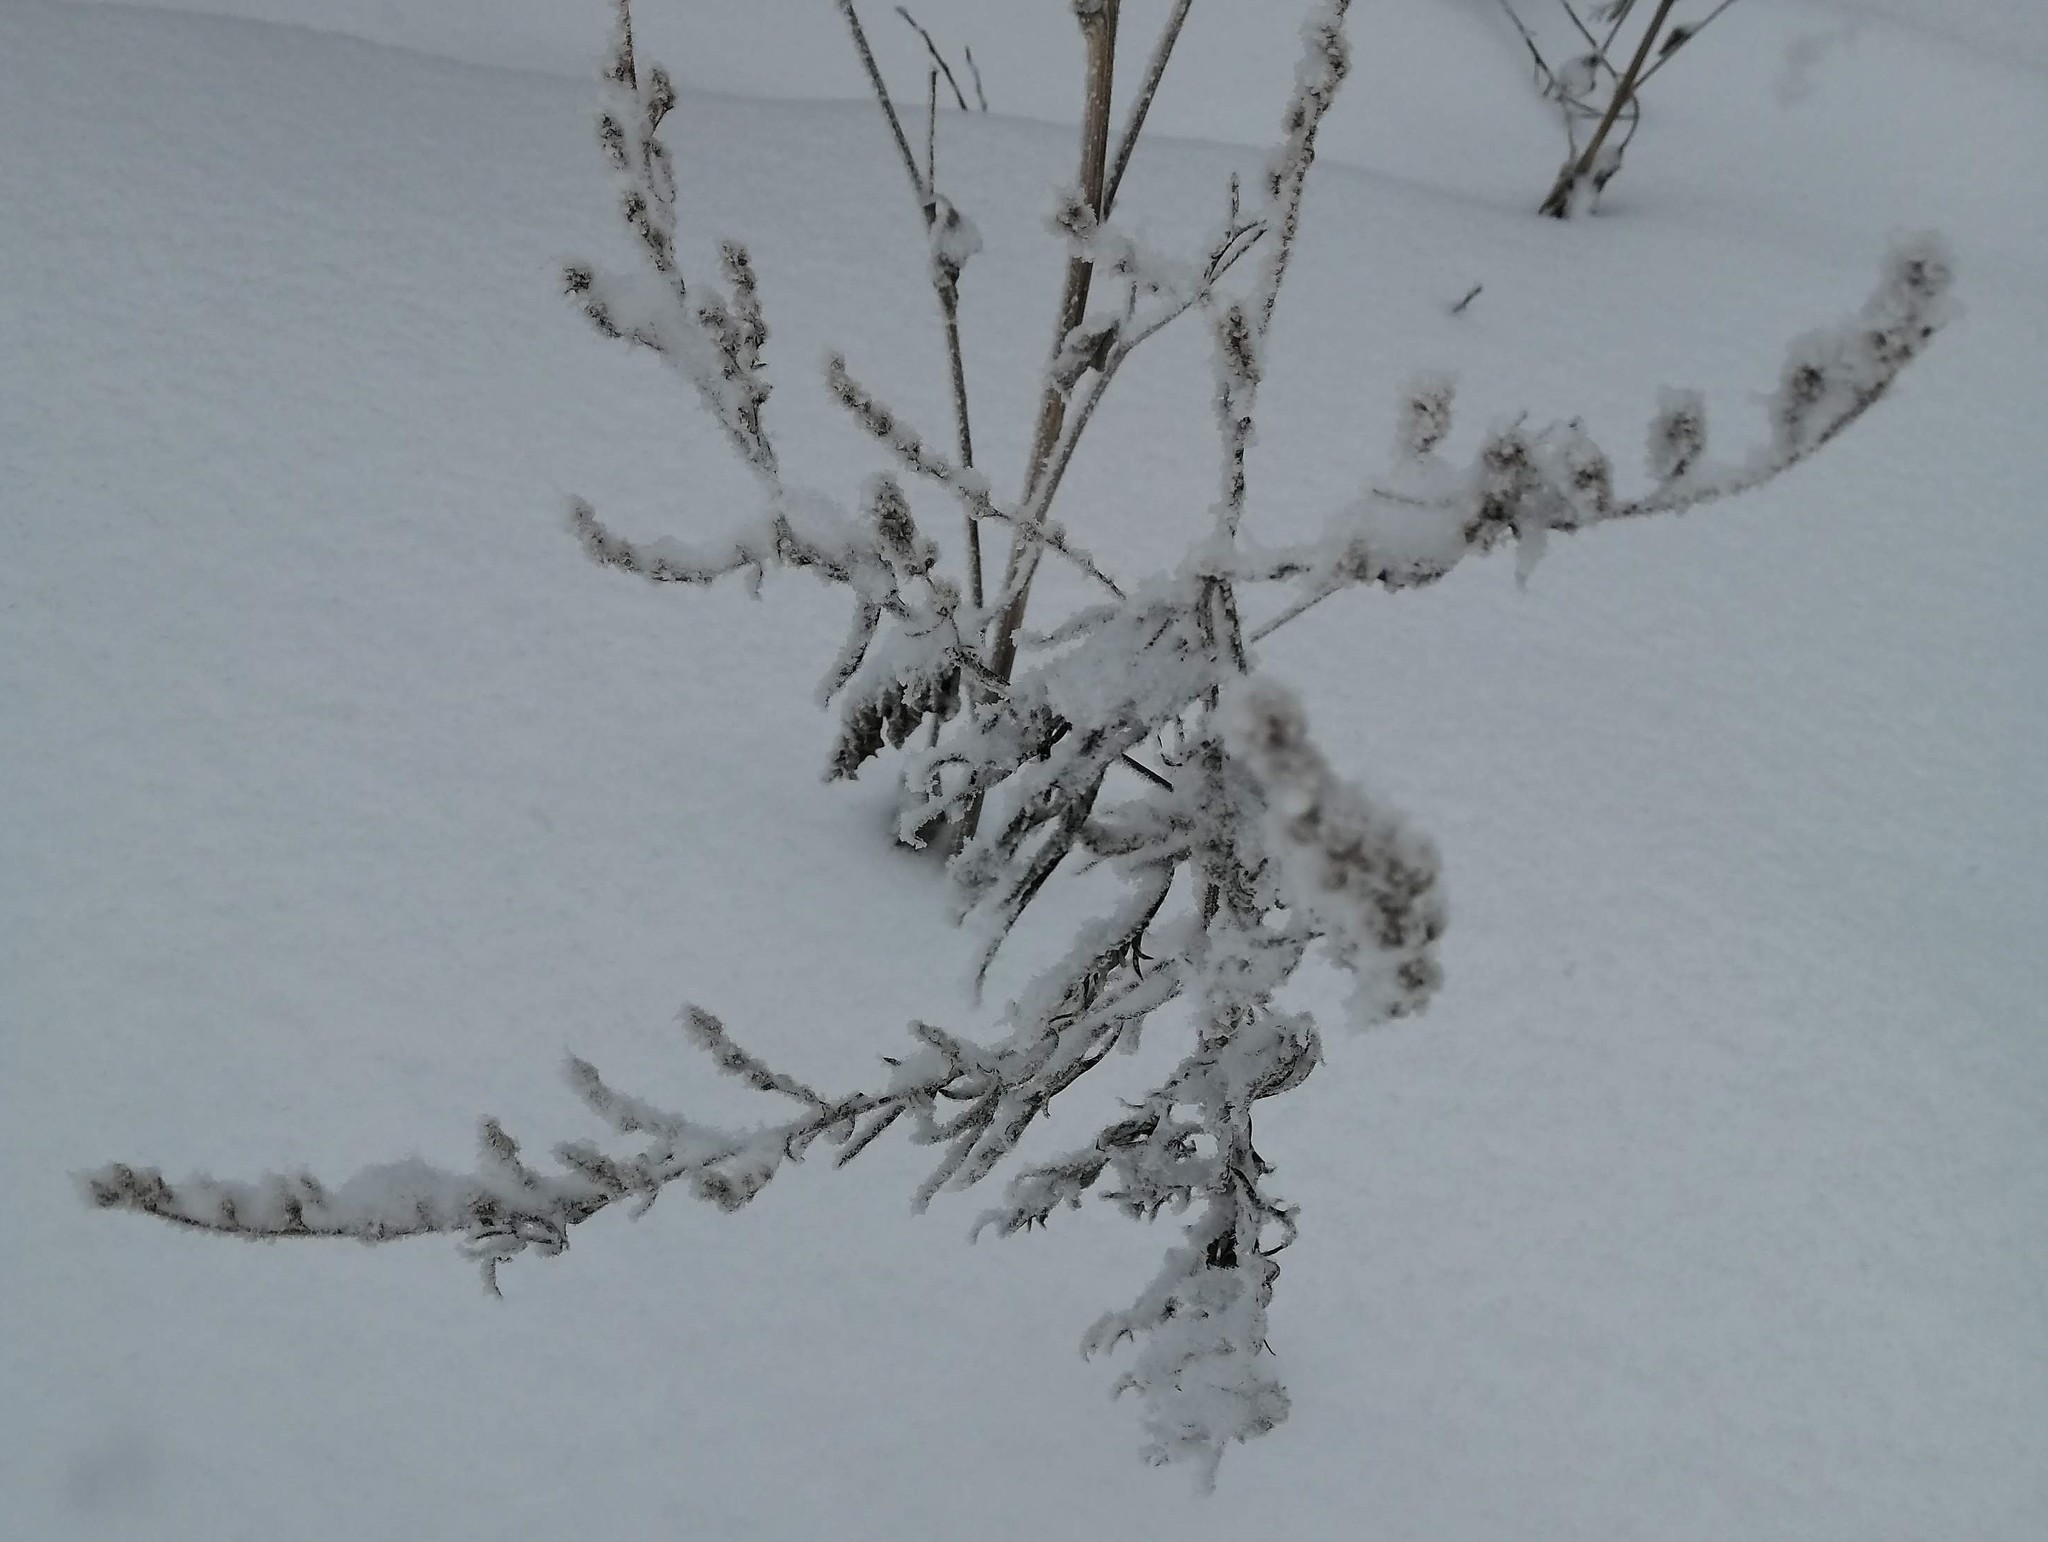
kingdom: Plantae
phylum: Tracheophyta
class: Magnoliopsida
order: Asterales
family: Asteraceae
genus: Artemisia
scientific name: Artemisia vulgaris
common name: Mugwort
